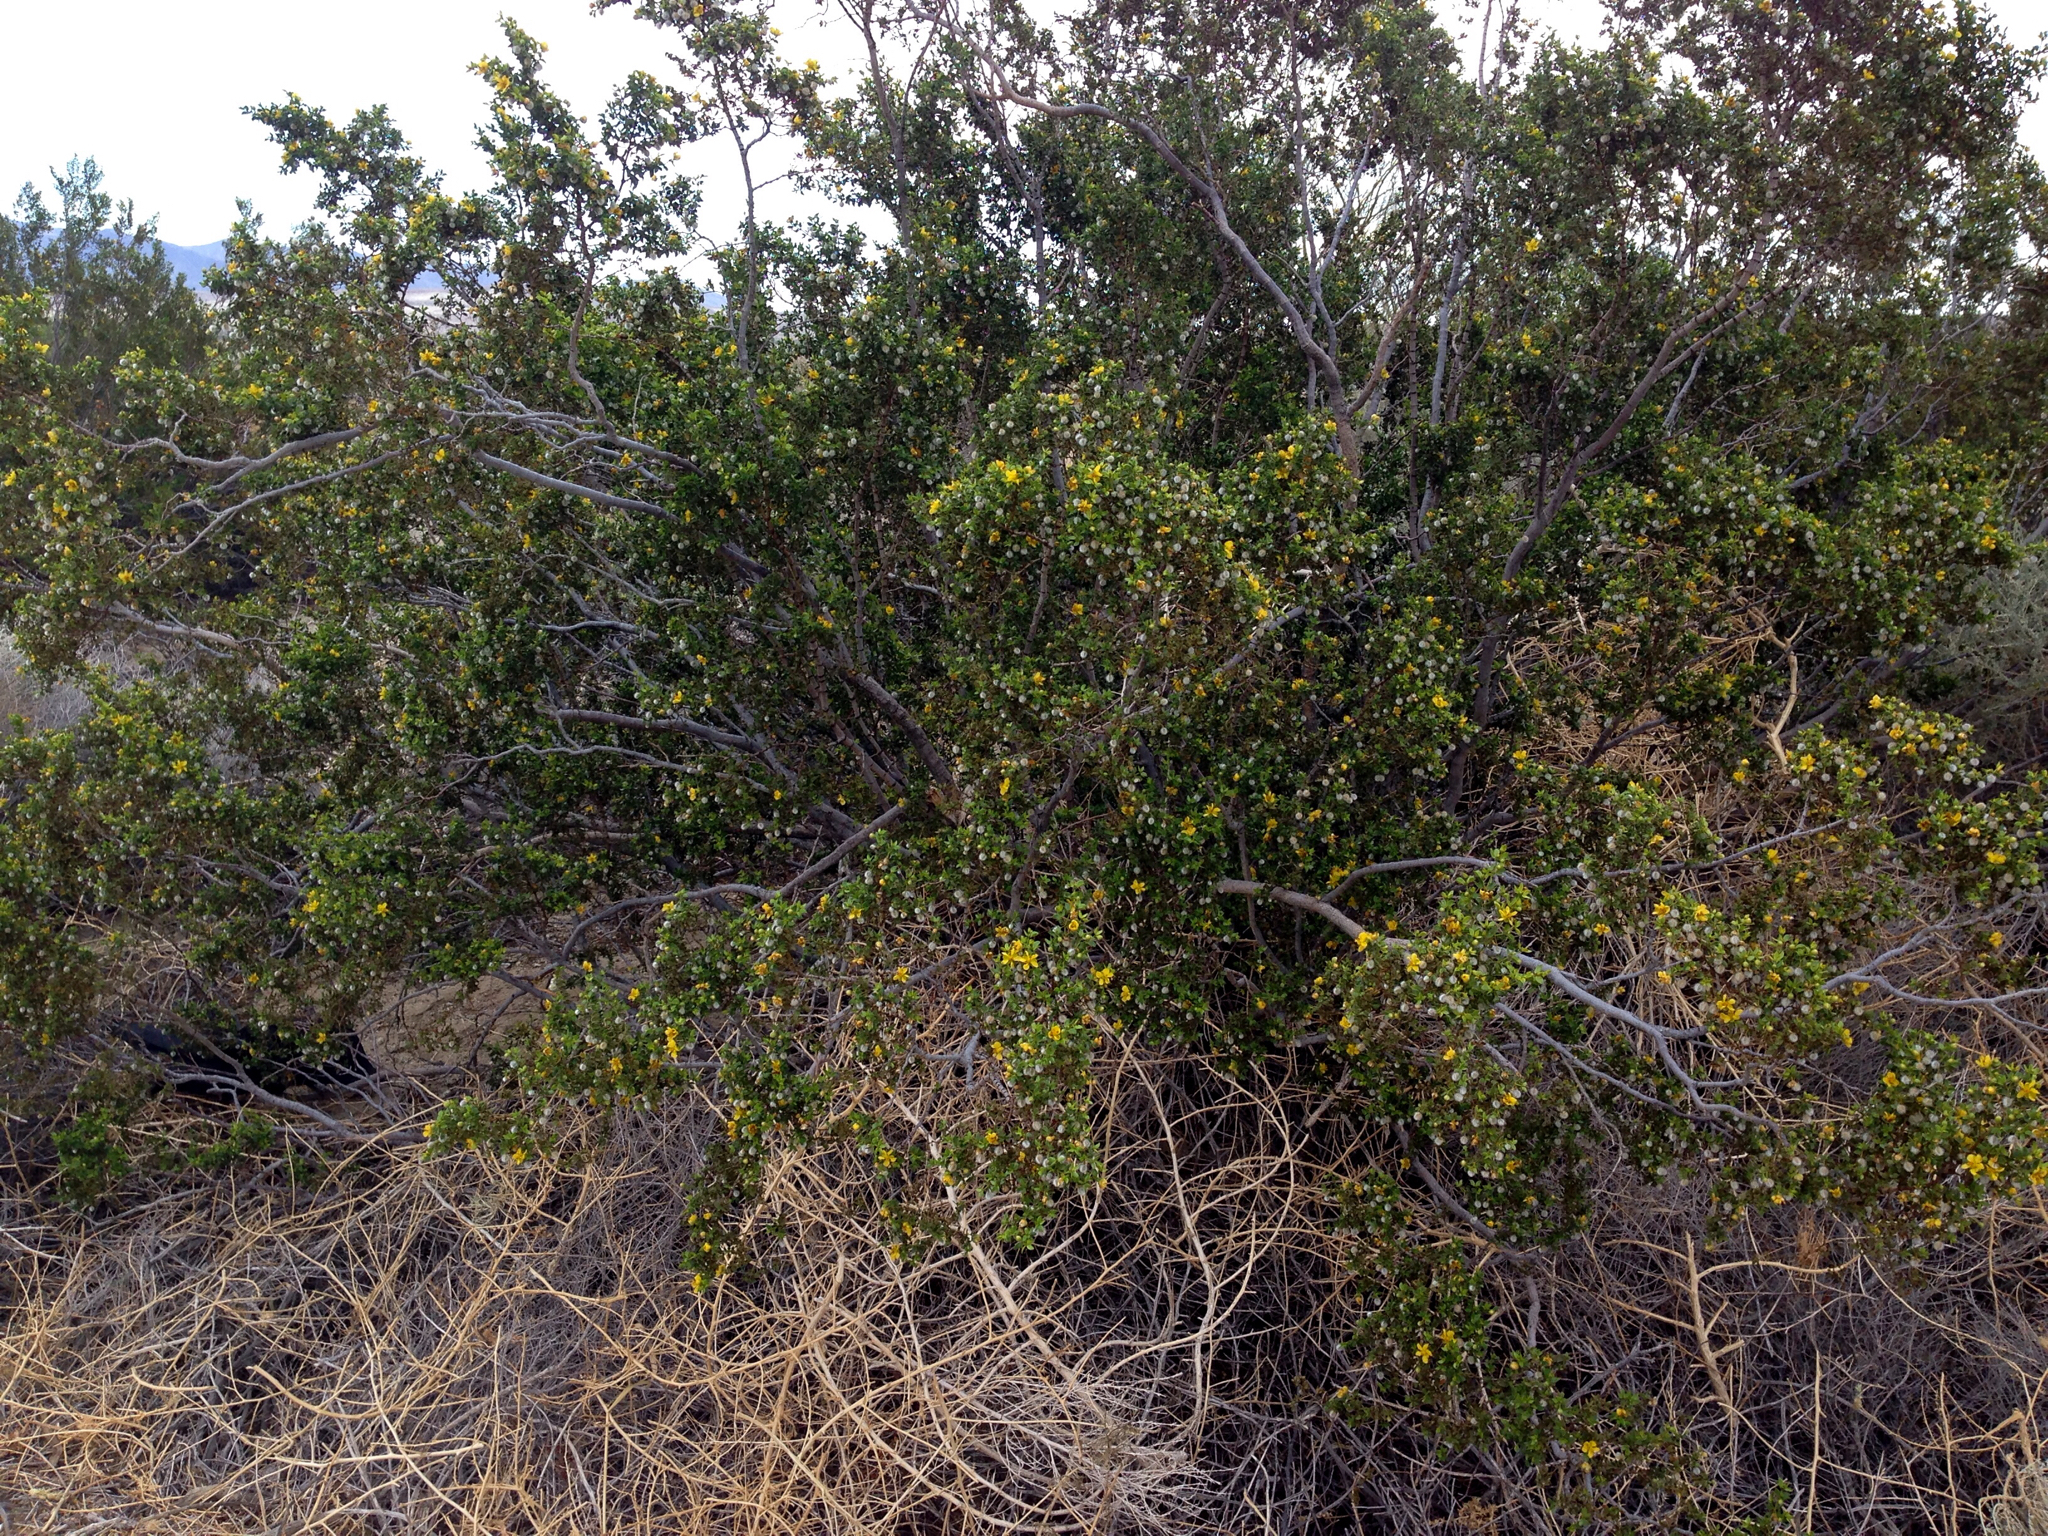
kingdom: Plantae
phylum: Tracheophyta
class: Magnoliopsida
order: Zygophyllales
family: Zygophyllaceae
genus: Larrea
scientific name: Larrea tridentata
